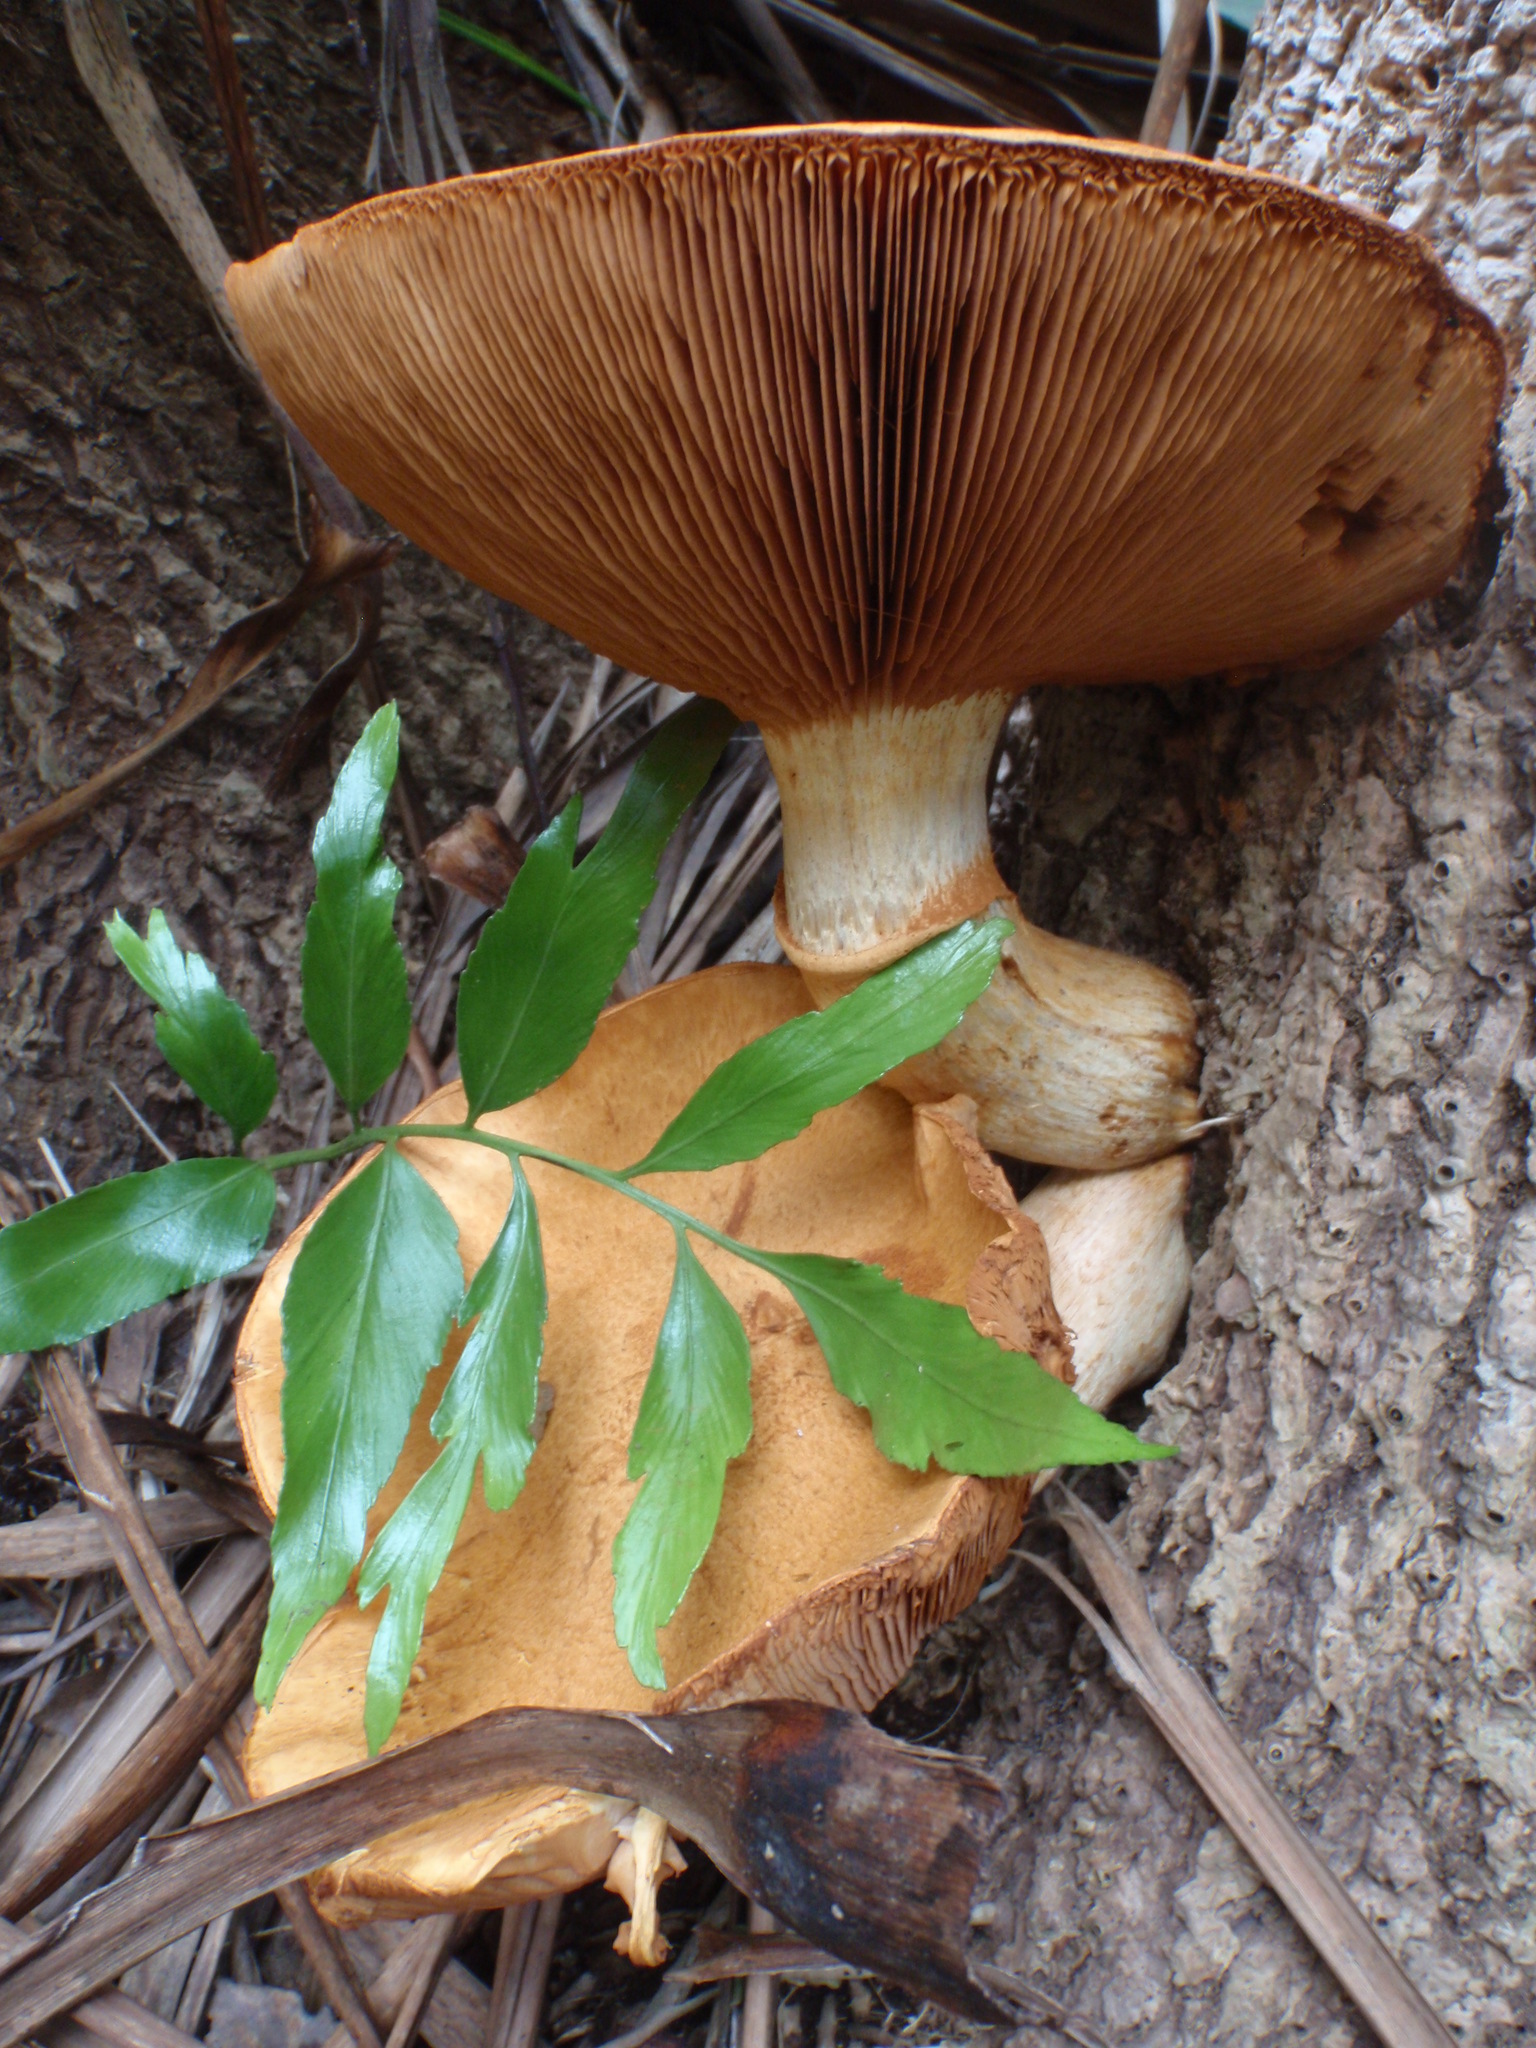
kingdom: Fungi
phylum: Basidiomycota
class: Agaricomycetes
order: Agaricales
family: Hymenogastraceae
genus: Gymnopilus
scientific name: Gymnopilus junonius
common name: Spectacular rustgill
